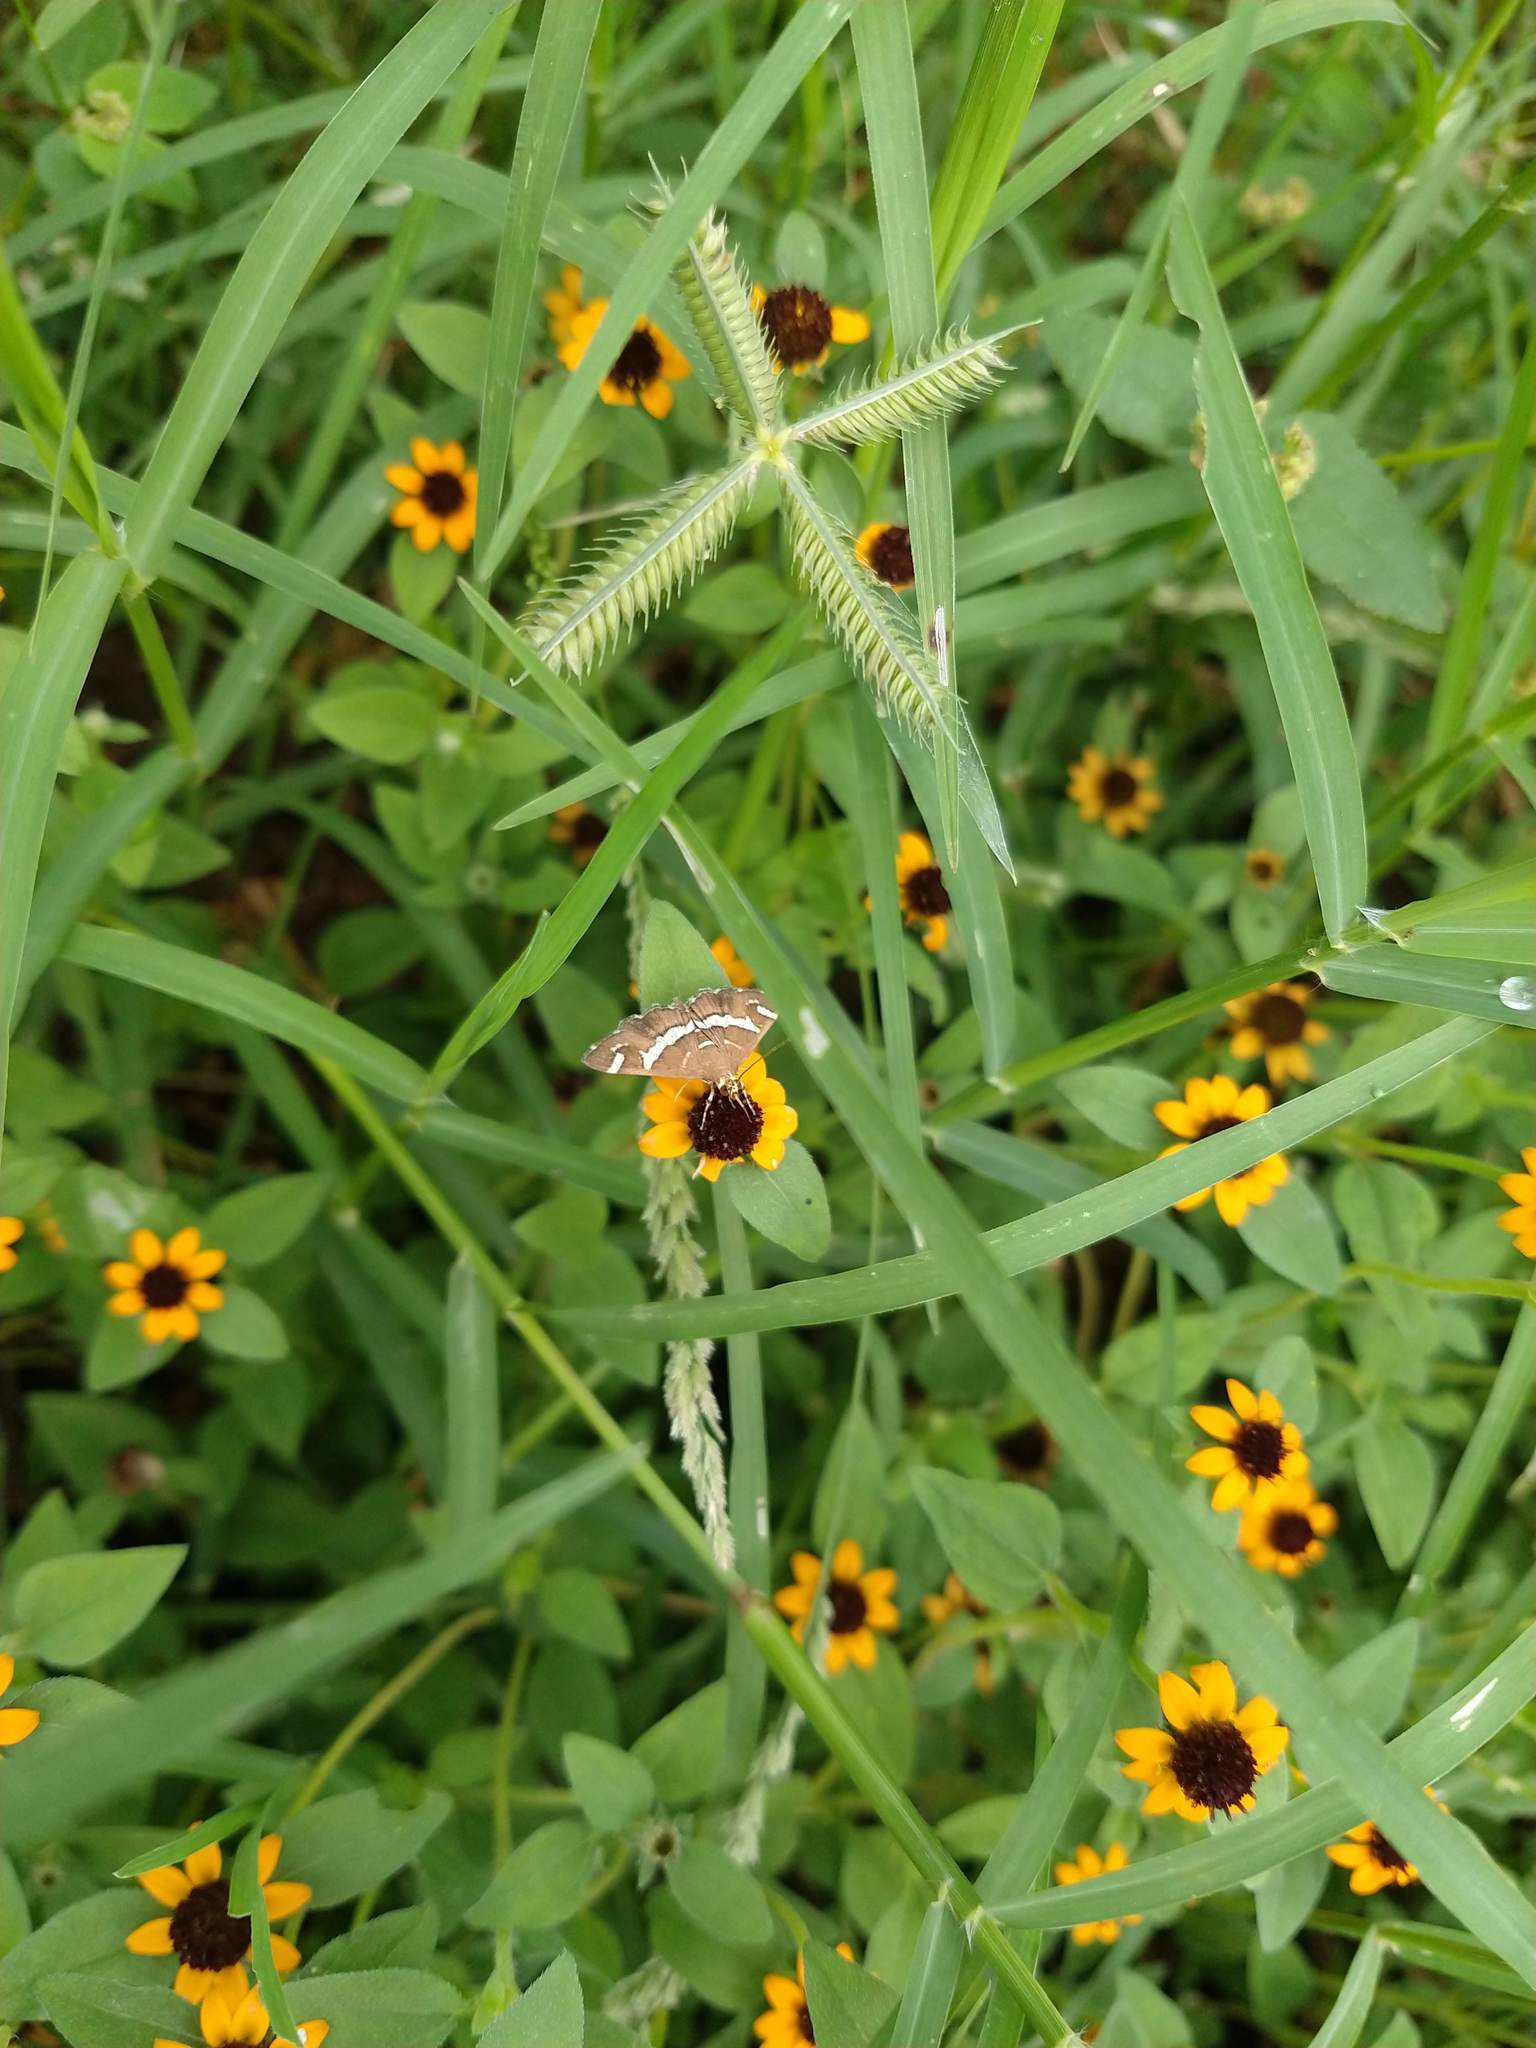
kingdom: Animalia
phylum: Arthropoda
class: Insecta
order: Lepidoptera
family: Crambidae
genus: Spoladea
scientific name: Spoladea recurvalis
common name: Beet webworm moth
